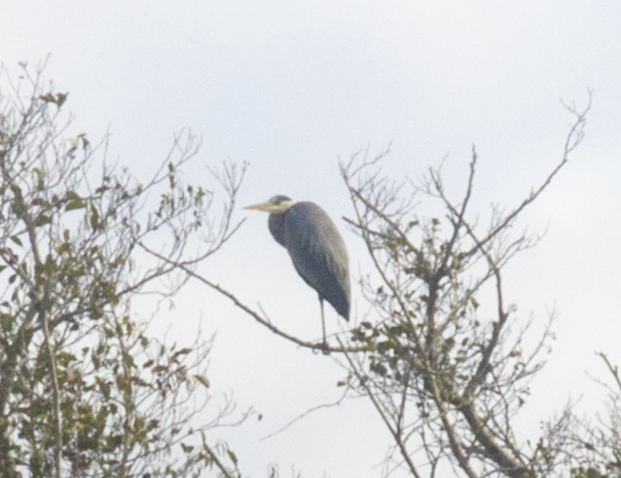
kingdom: Animalia
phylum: Chordata
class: Aves
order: Pelecaniformes
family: Ardeidae
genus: Ardea
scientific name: Ardea cinerea
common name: Grey heron
